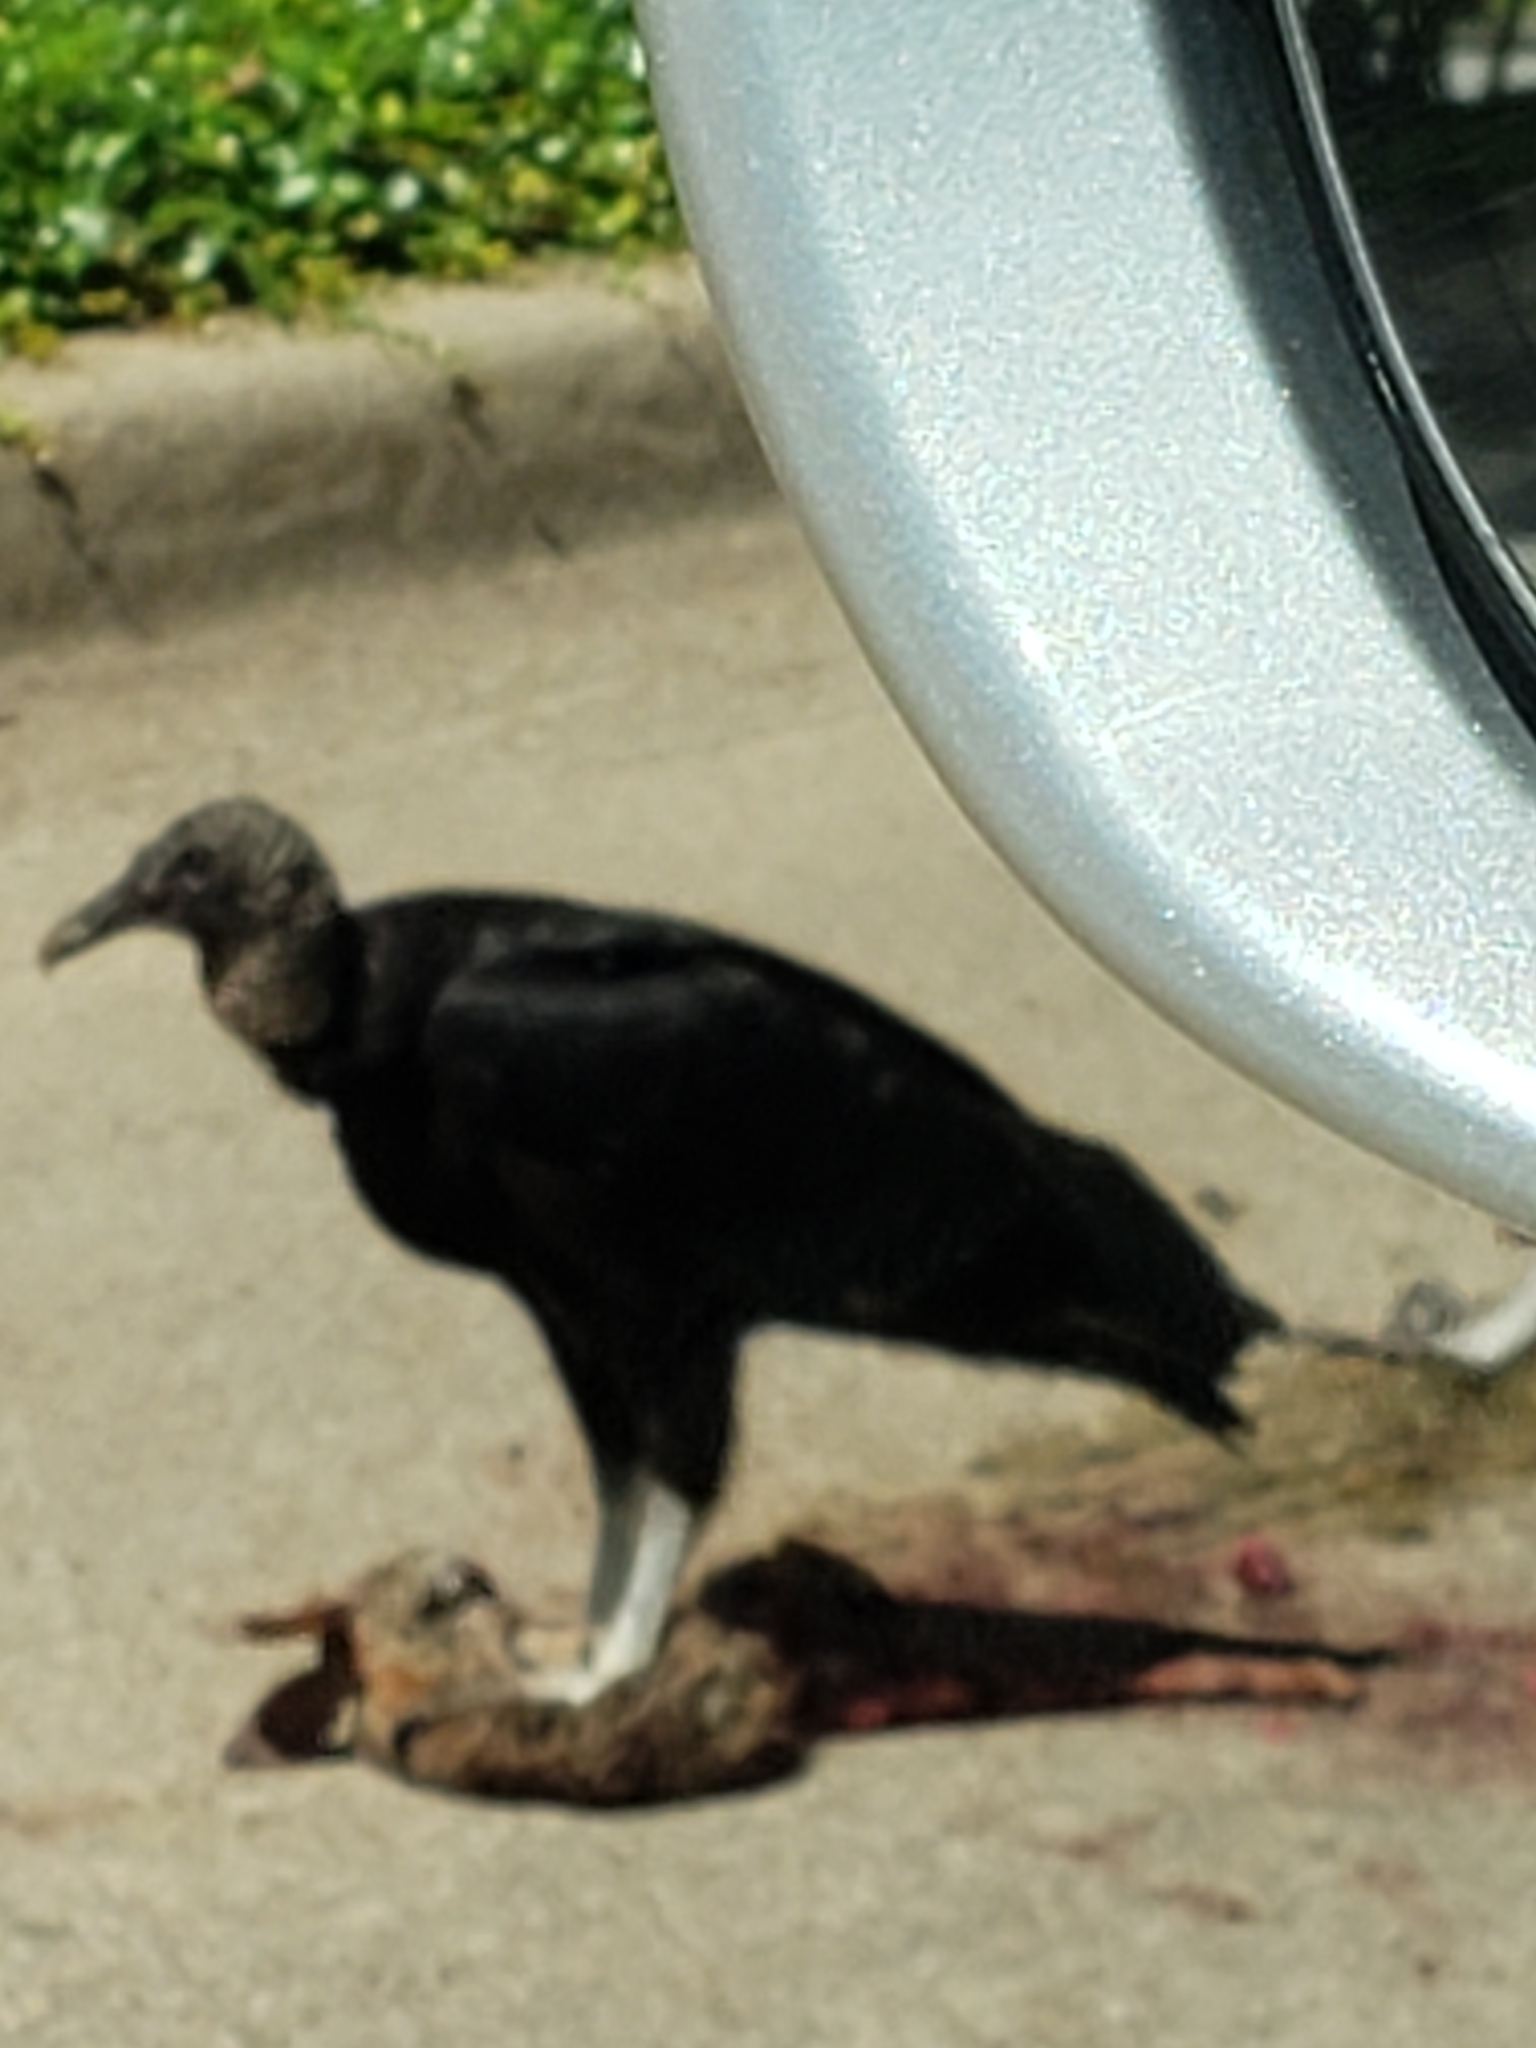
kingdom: Animalia
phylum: Chordata
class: Aves
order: Accipitriformes
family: Cathartidae
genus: Coragyps
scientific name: Coragyps atratus
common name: Black vulture
